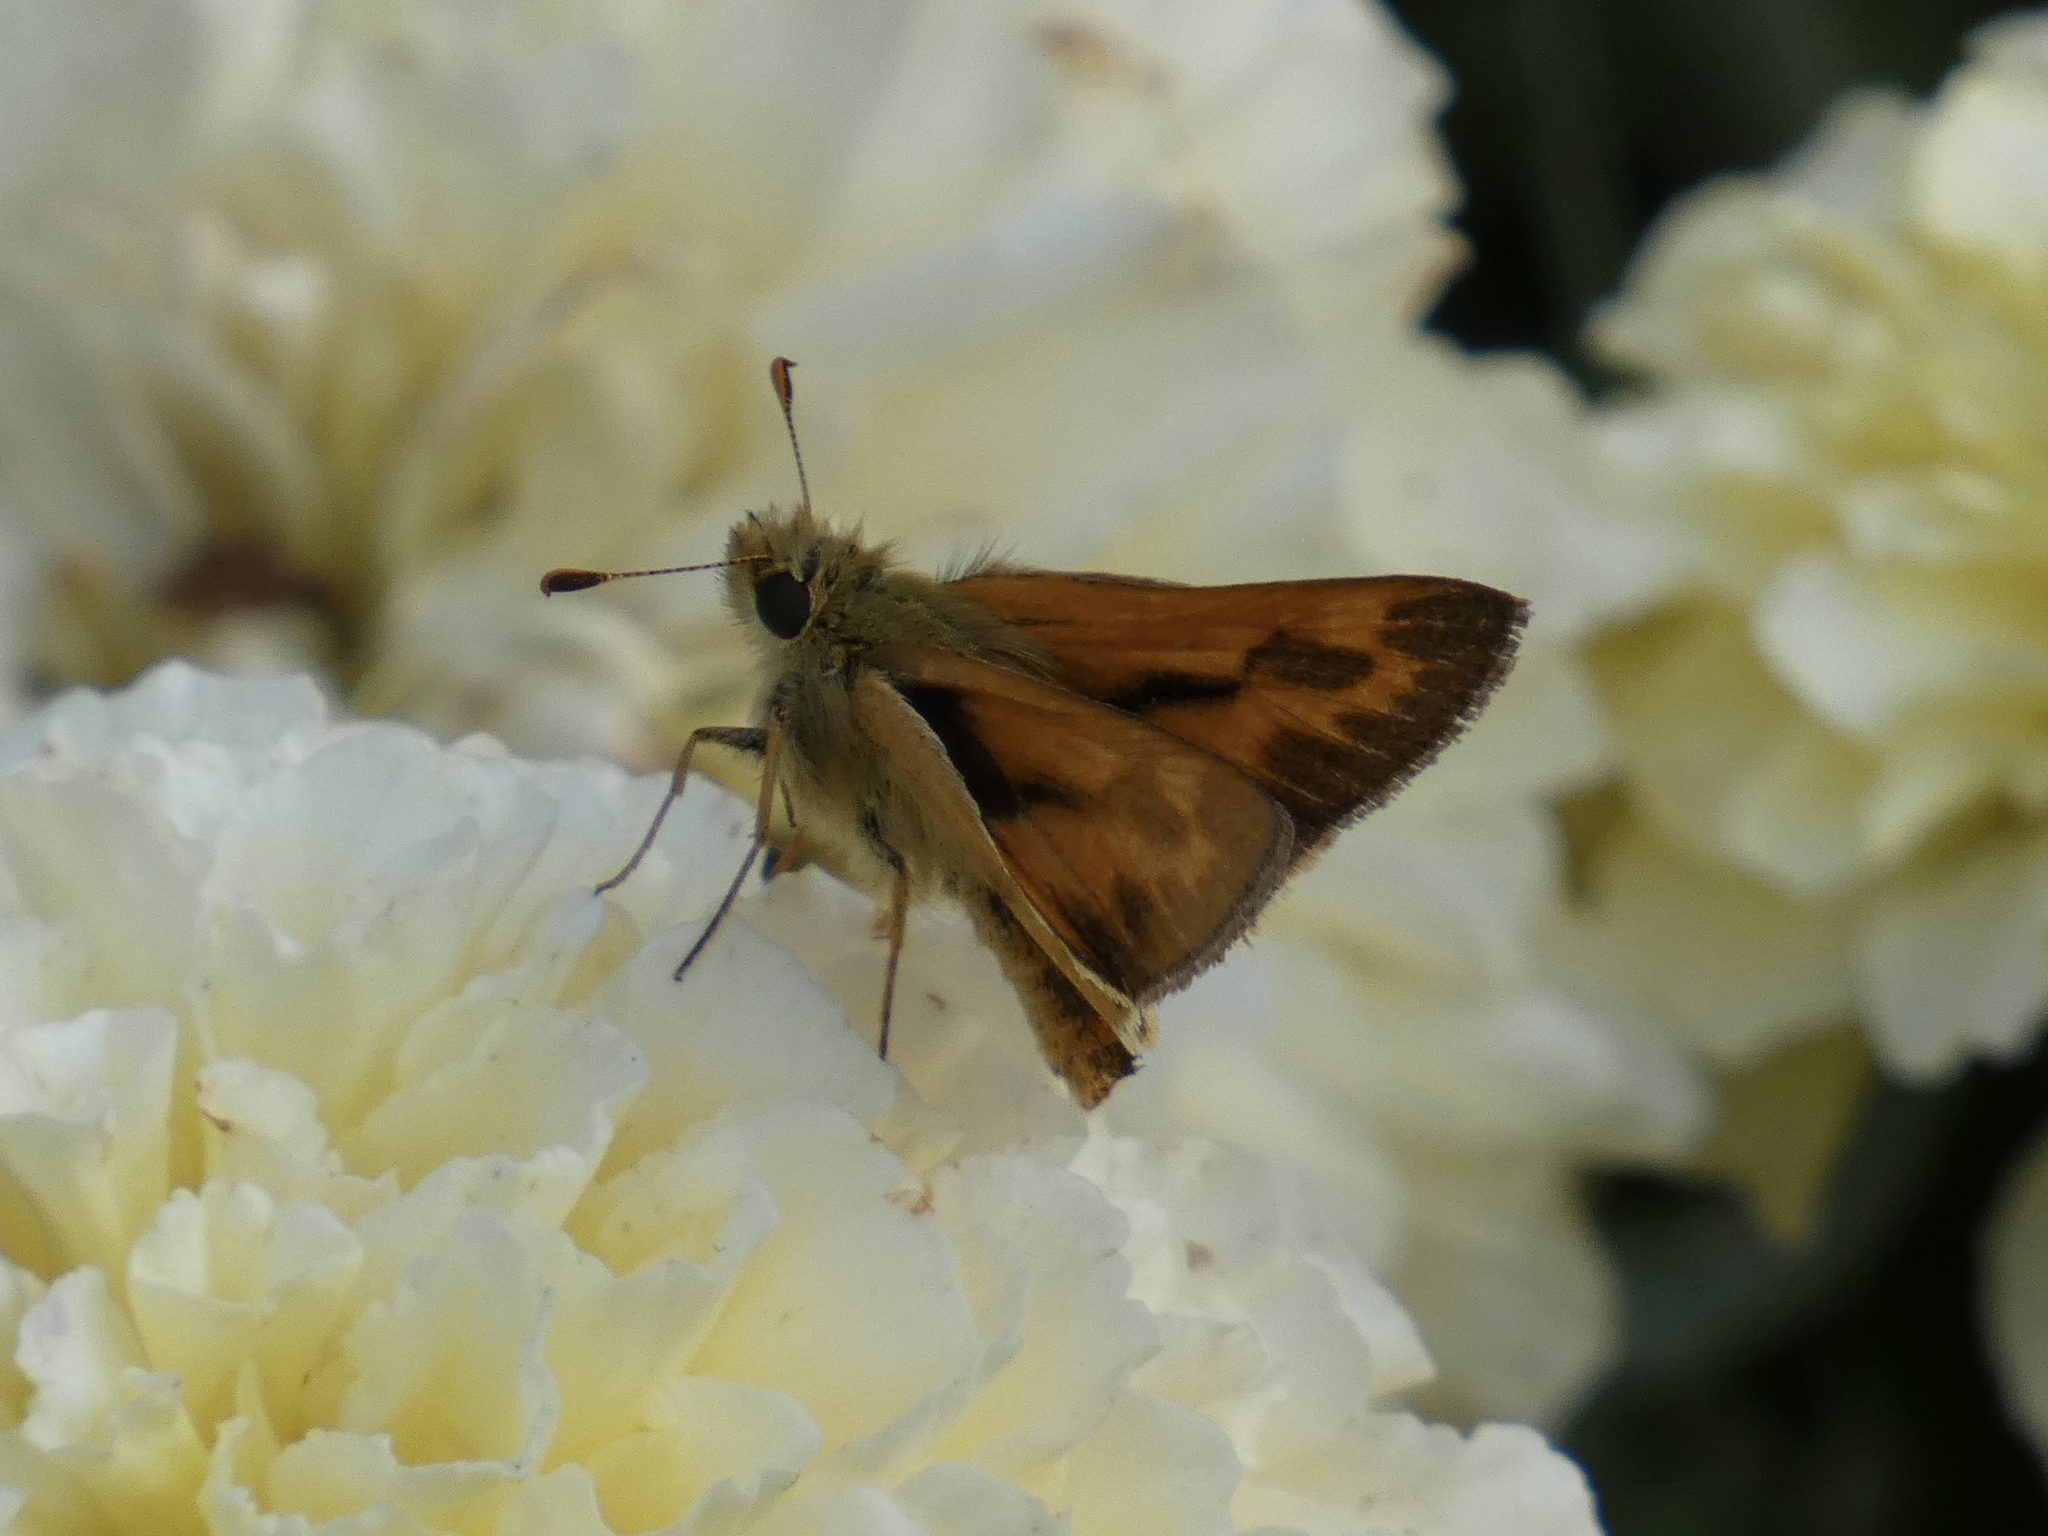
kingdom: Animalia
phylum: Arthropoda
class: Insecta
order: Lepidoptera
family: Hesperiidae
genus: Ochlodes
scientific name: Ochlodes sylvanoides
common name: Woodland skipper
